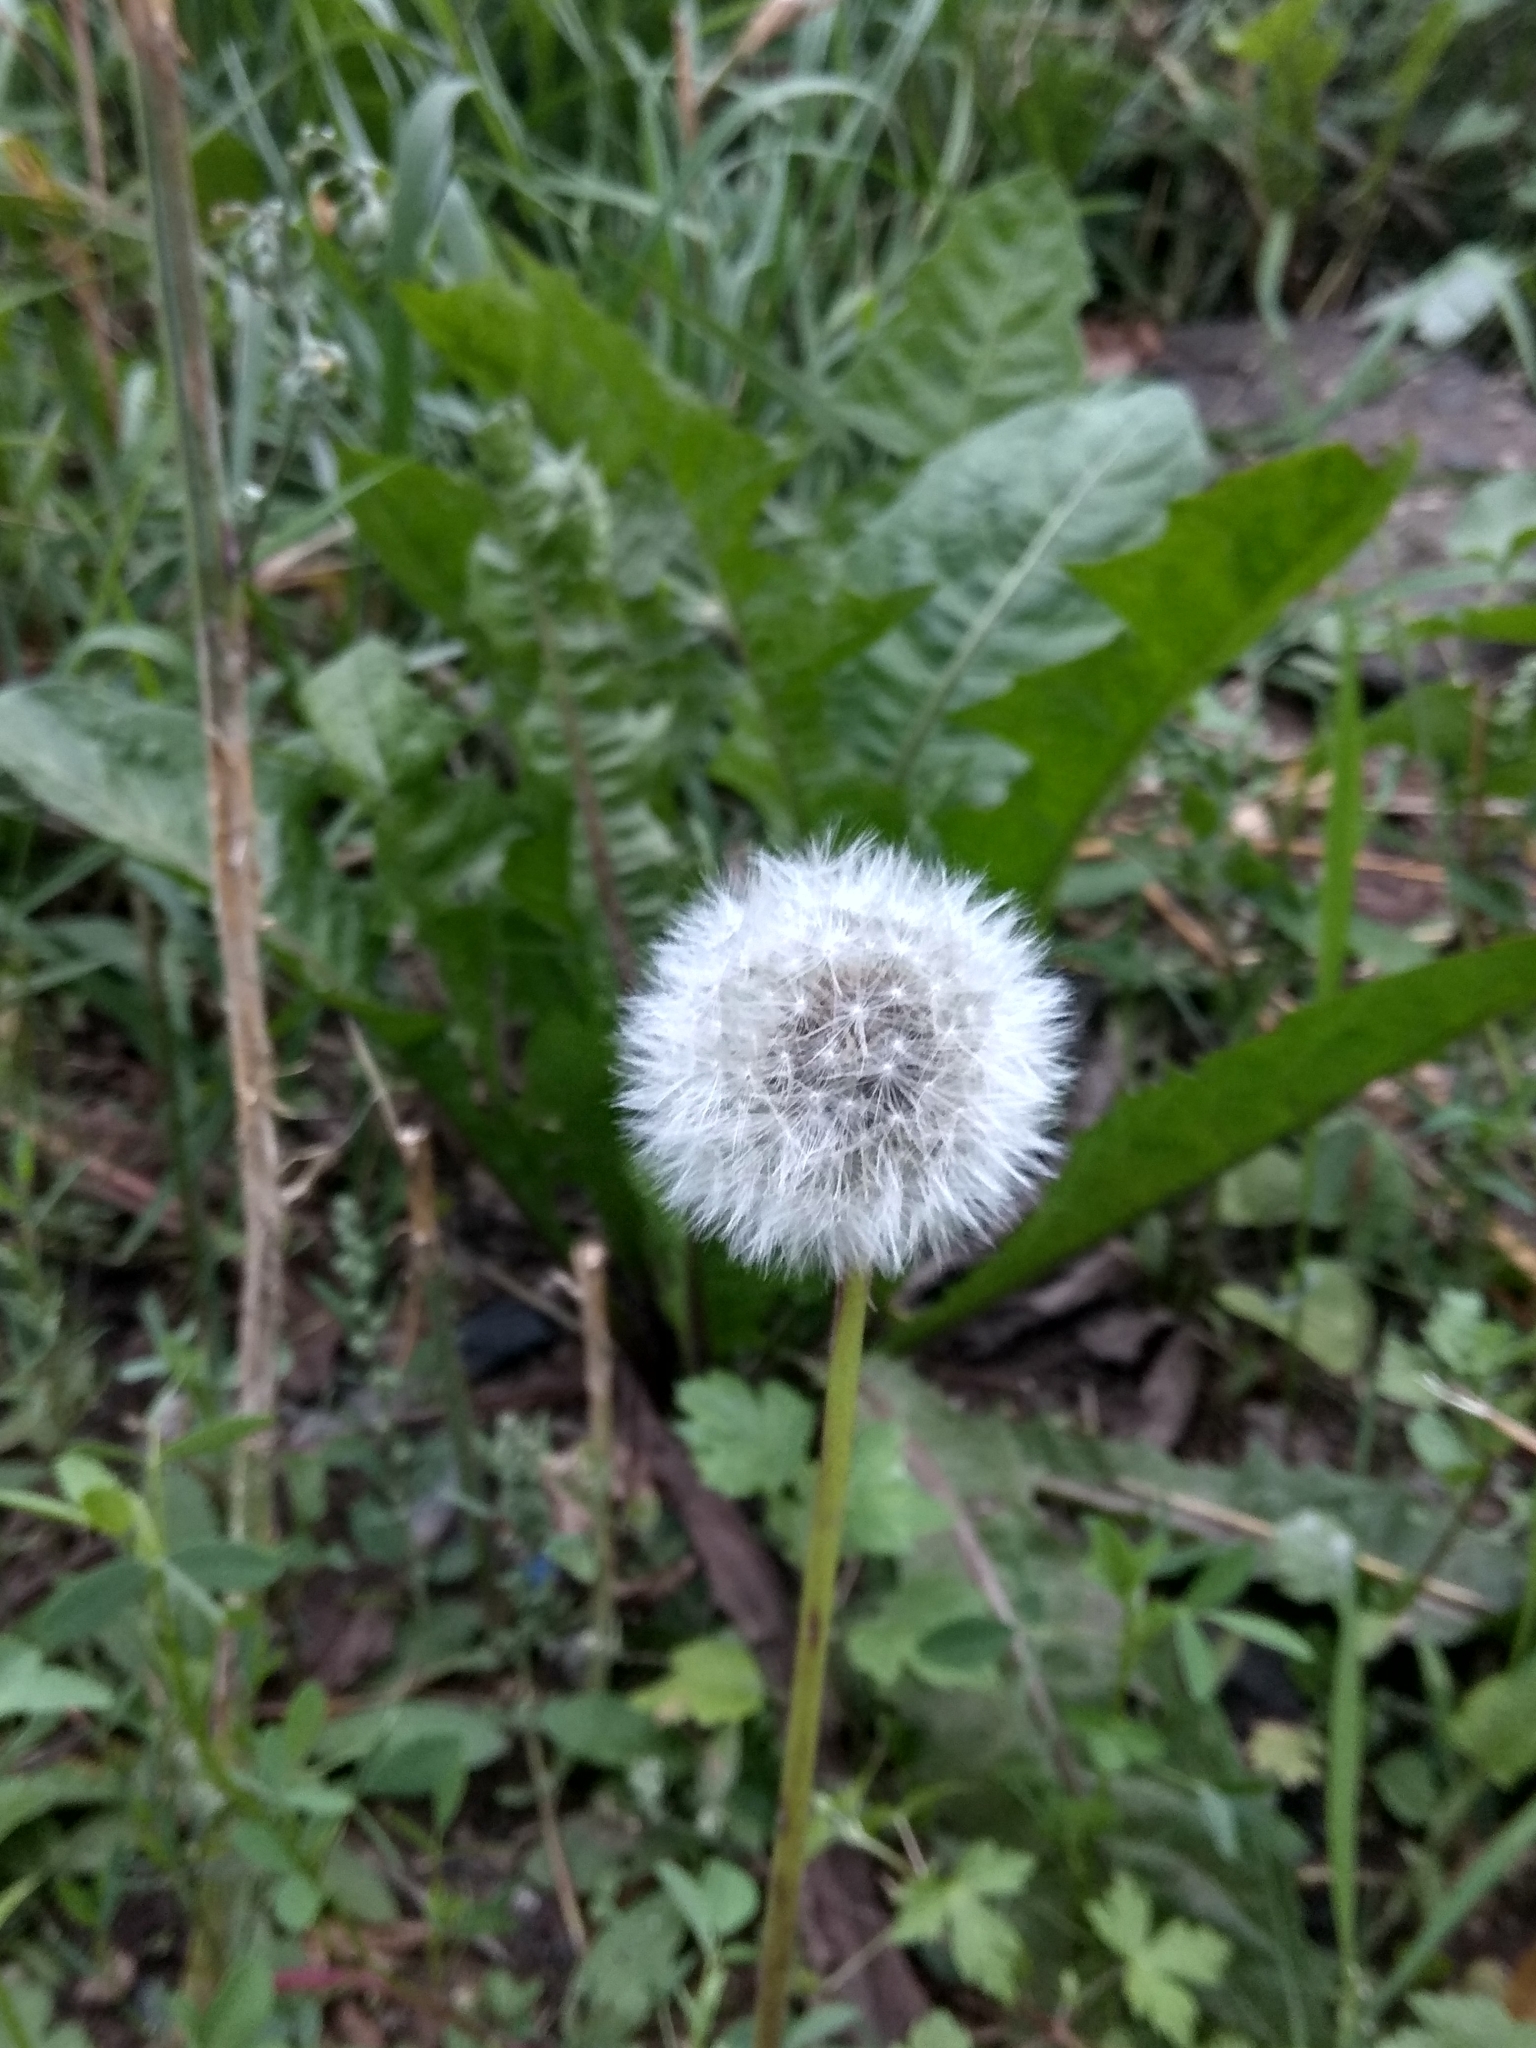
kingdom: Plantae
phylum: Tracheophyta
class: Magnoliopsida
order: Asterales
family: Asteraceae
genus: Taraxacum
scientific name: Taraxacum officinale
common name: Common dandelion
